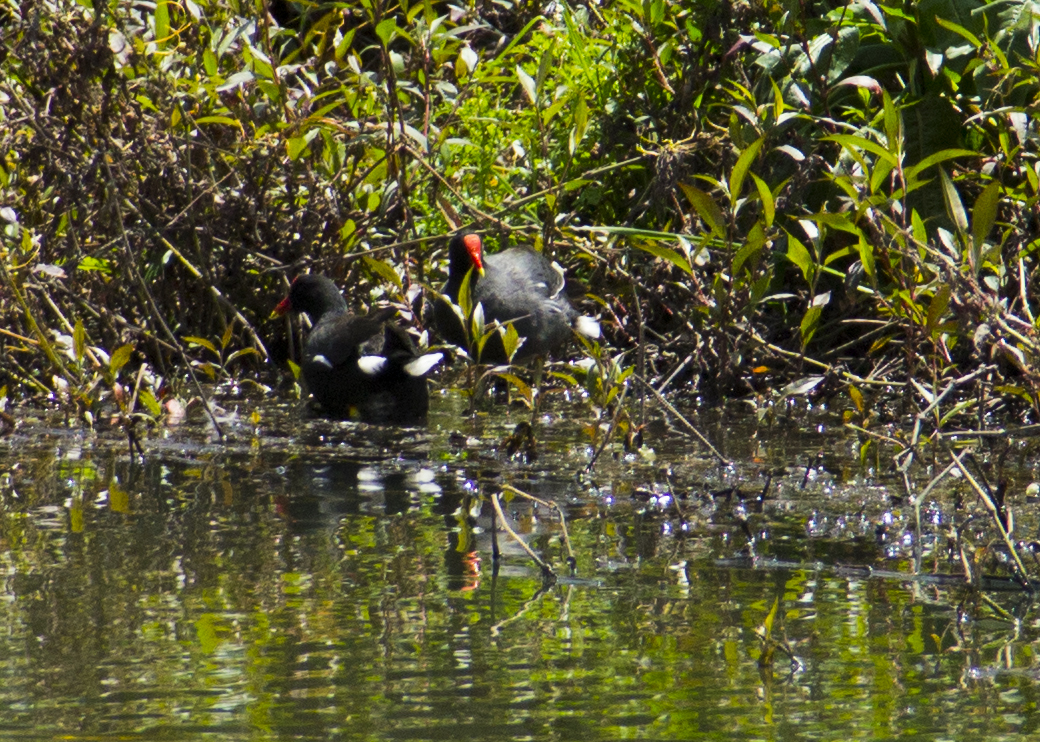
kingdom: Animalia
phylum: Chordata
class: Aves
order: Gruiformes
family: Rallidae
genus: Gallinula
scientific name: Gallinula chloropus
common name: Common moorhen
